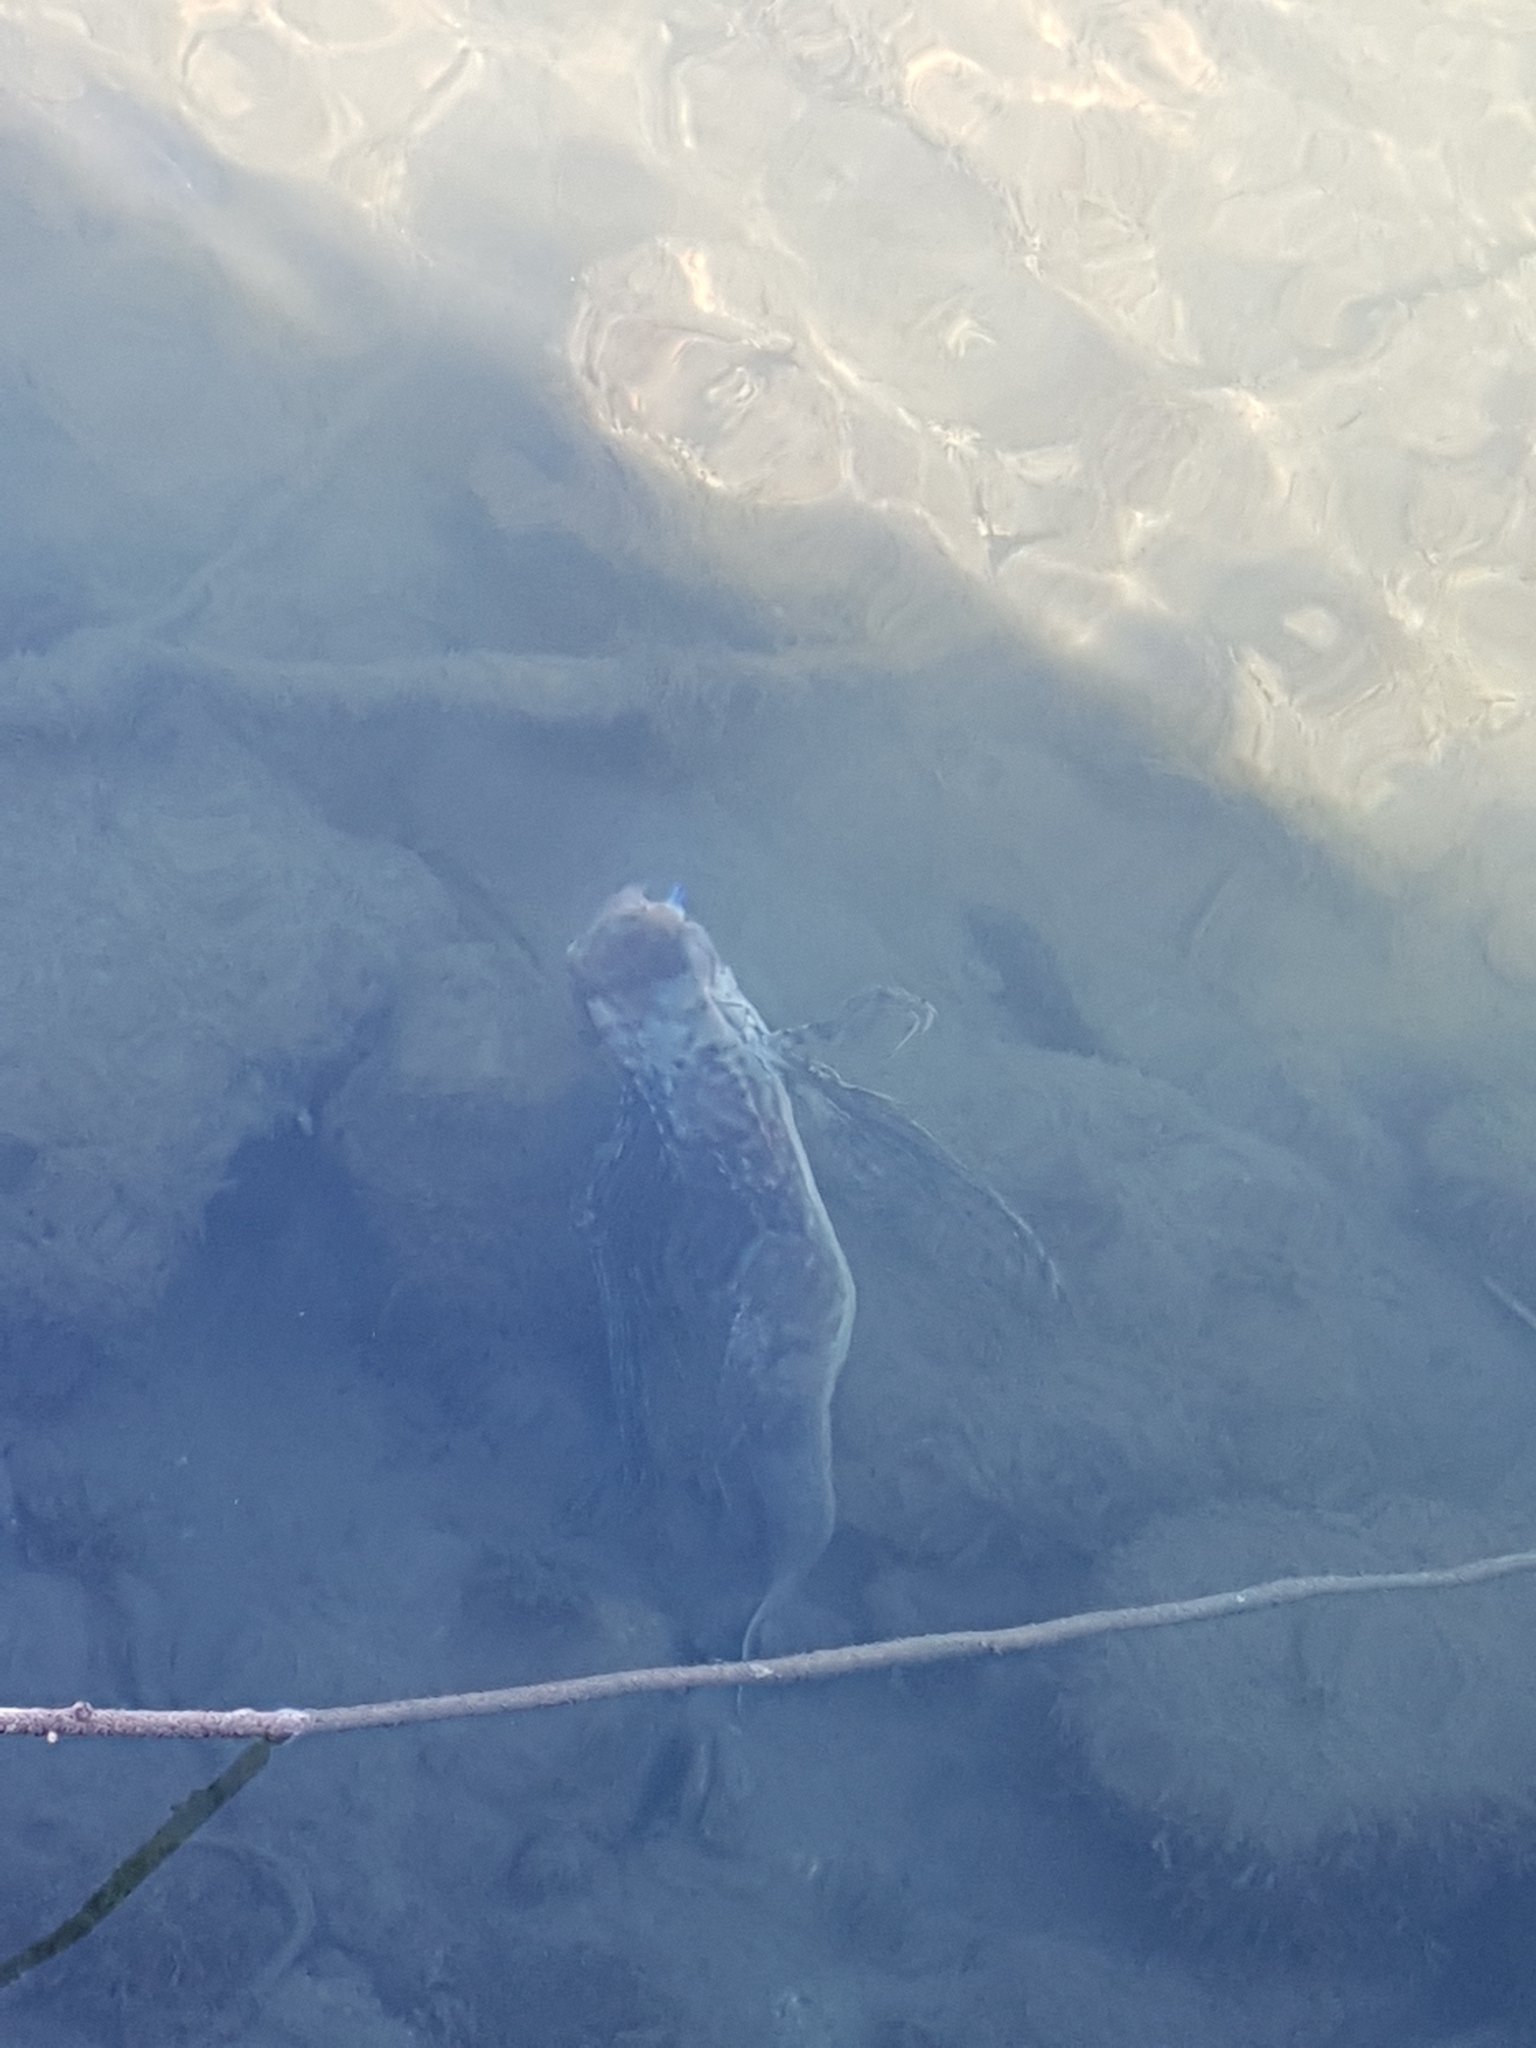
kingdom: Animalia
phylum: Chordata
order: Scorpaeniformes
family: Dactylopteridae
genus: Dactylopterus
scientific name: Dactylopterus volitans
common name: Flying gurnard
